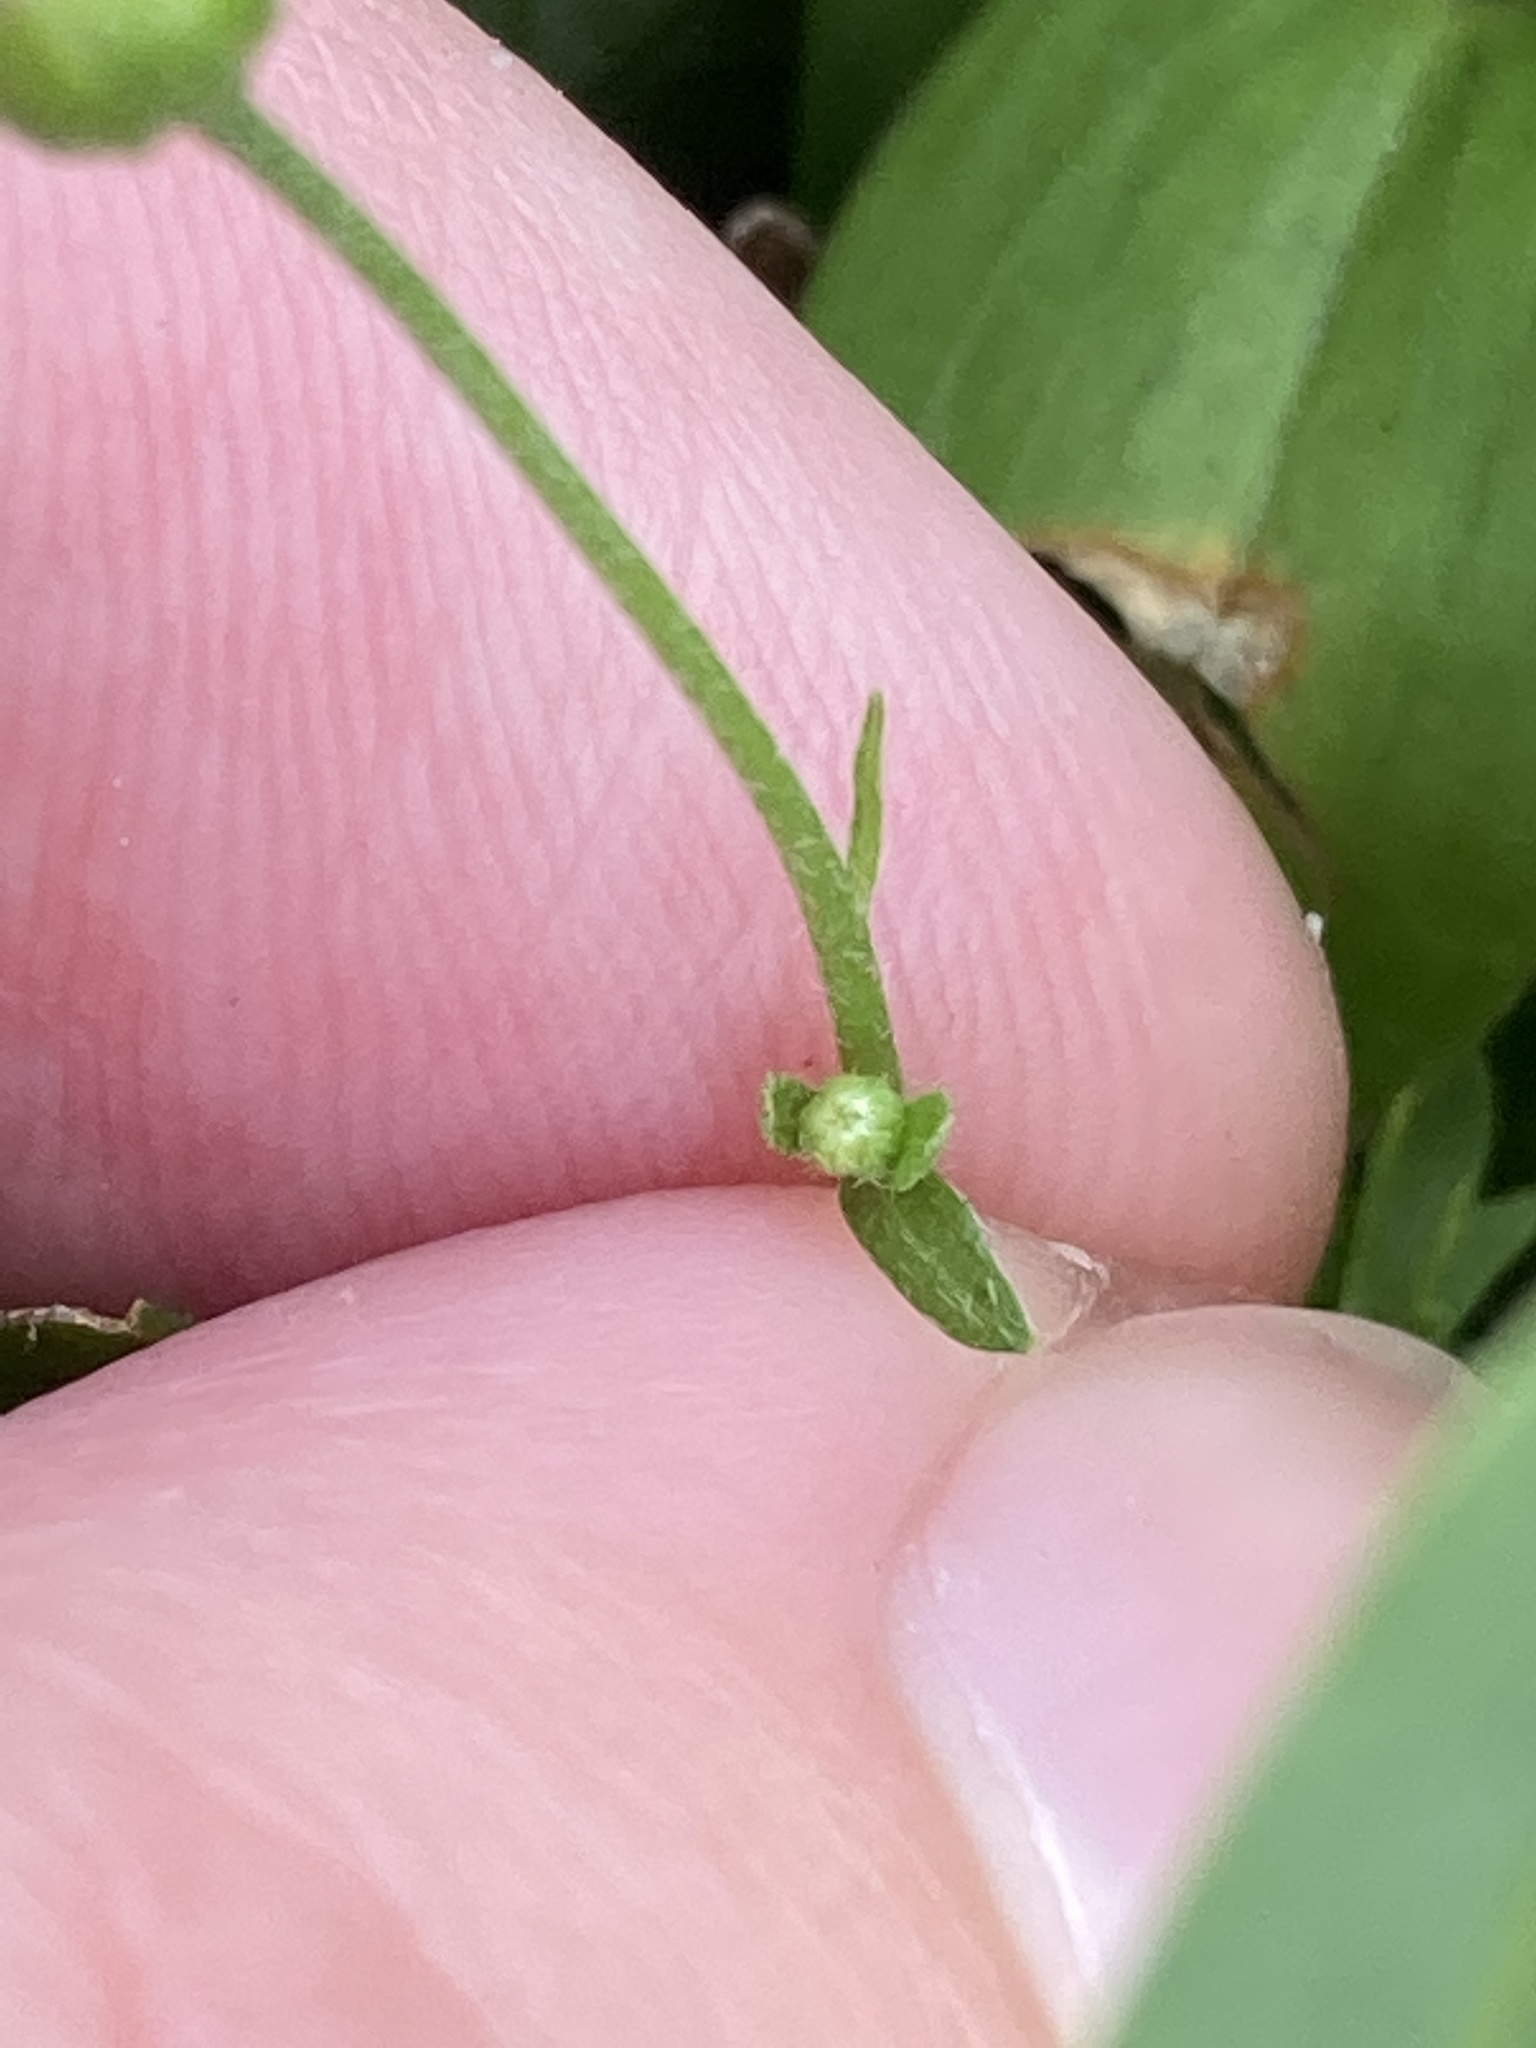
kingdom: Plantae
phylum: Tracheophyta
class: Magnoliopsida
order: Asterales
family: Asteraceae
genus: Erigeron
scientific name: Erigeron bellioides
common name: Bellorita
